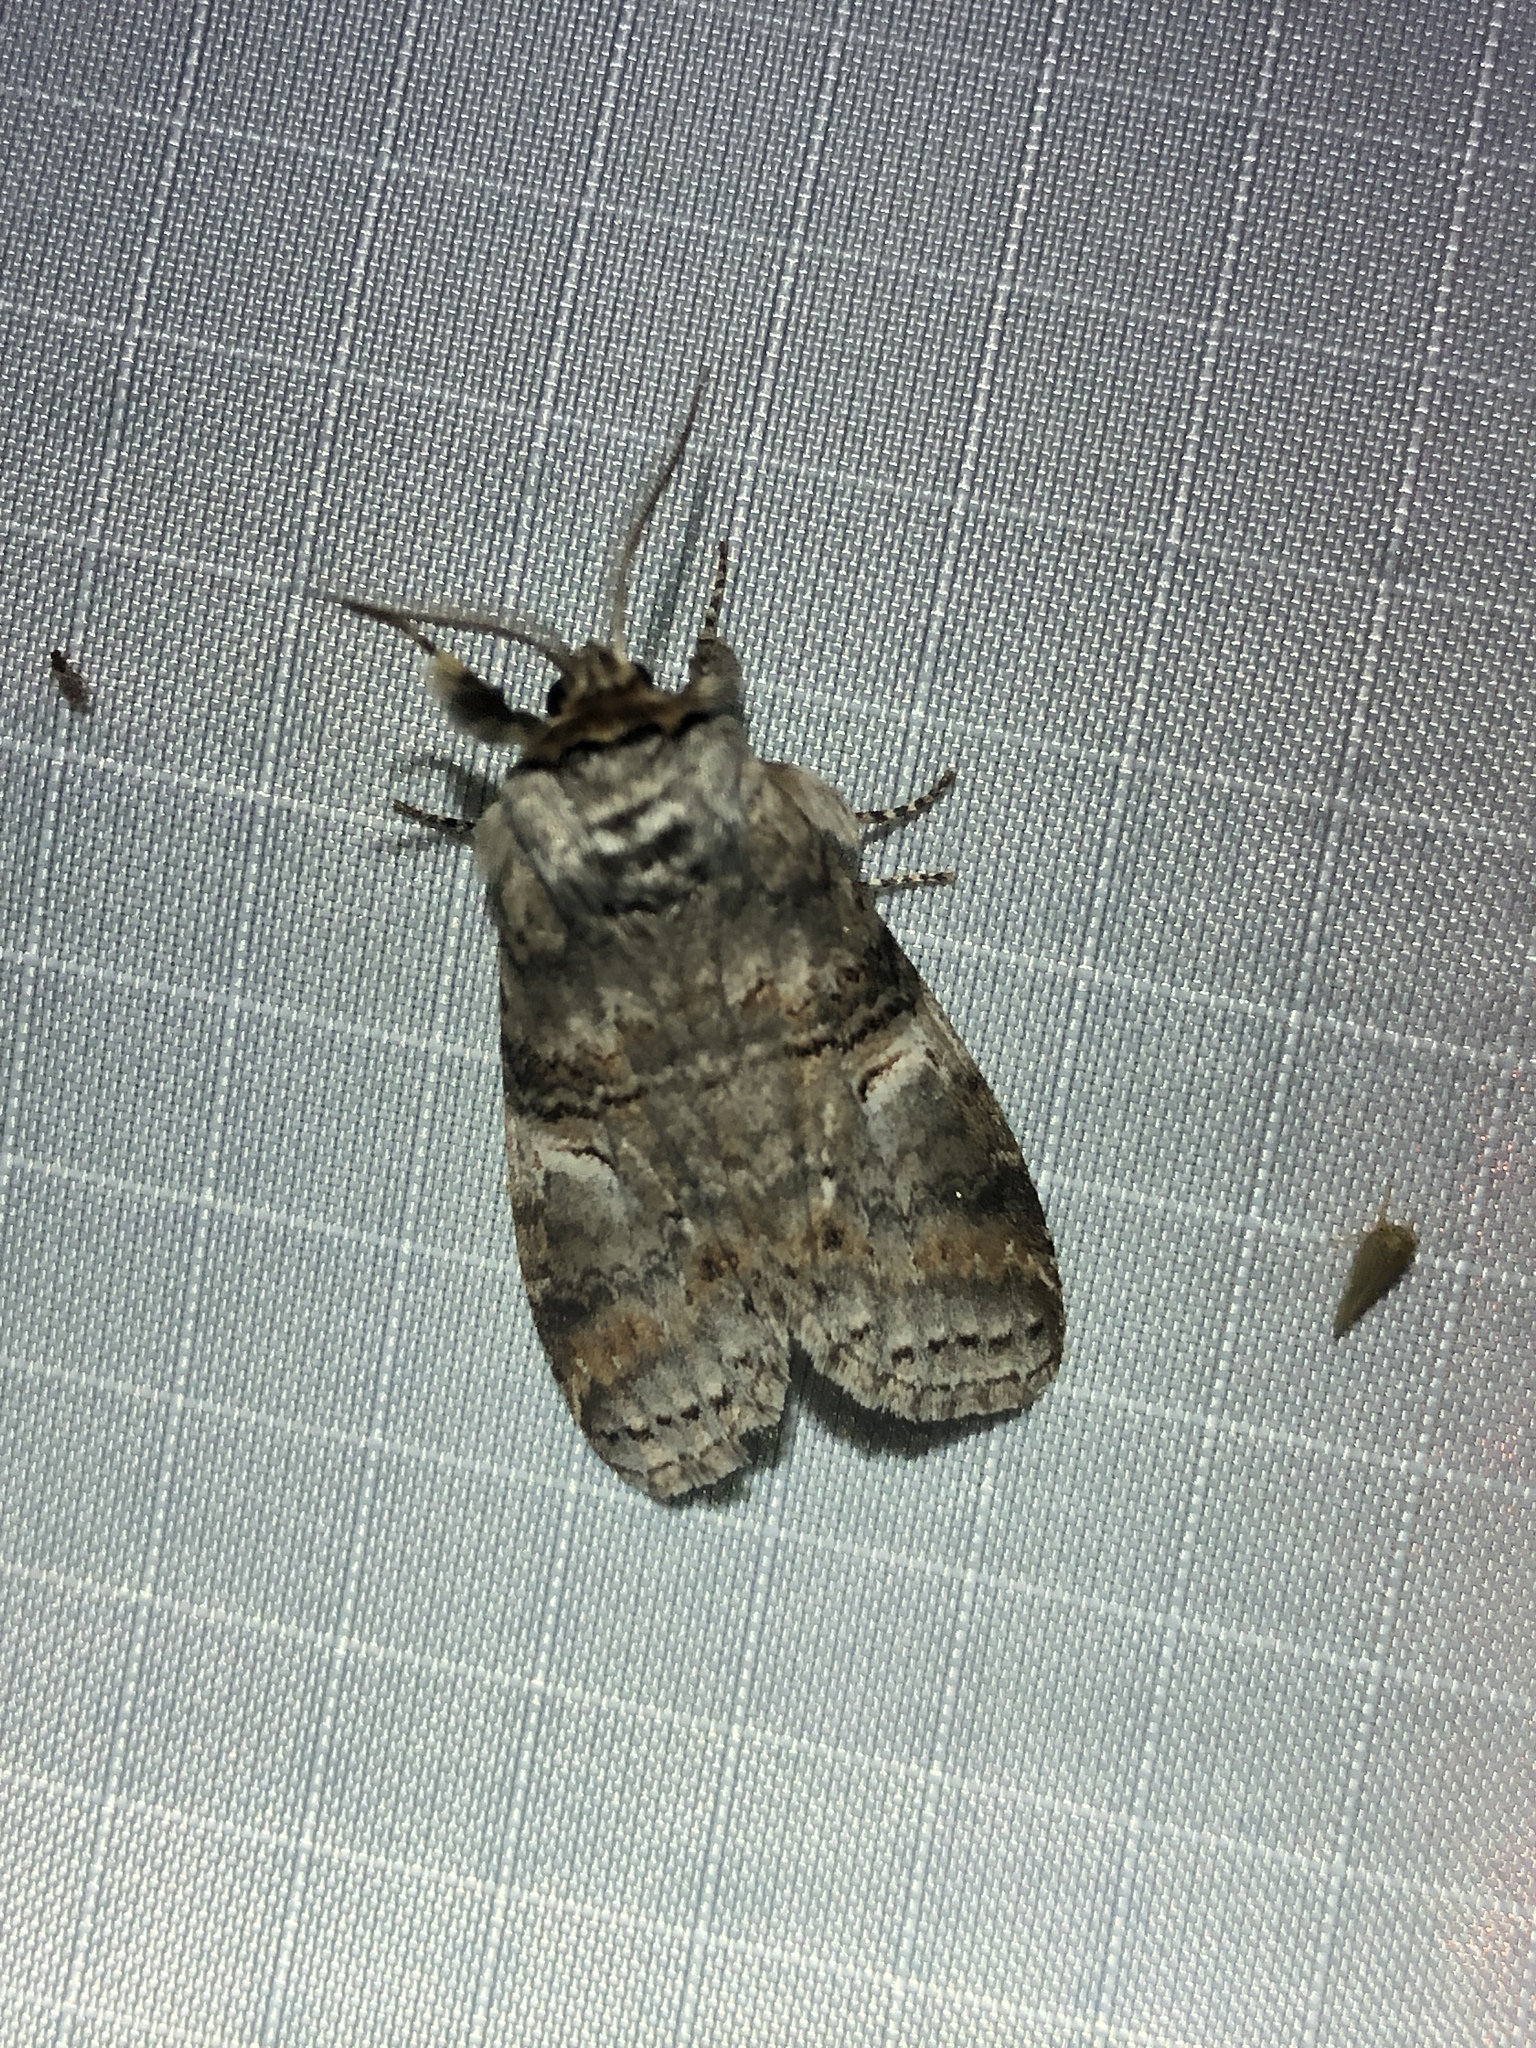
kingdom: Animalia
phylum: Arthropoda
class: Insecta
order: Lepidoptera
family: Notodontidae
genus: Ellida
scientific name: Ellida caniplaga
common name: Linden prominent
